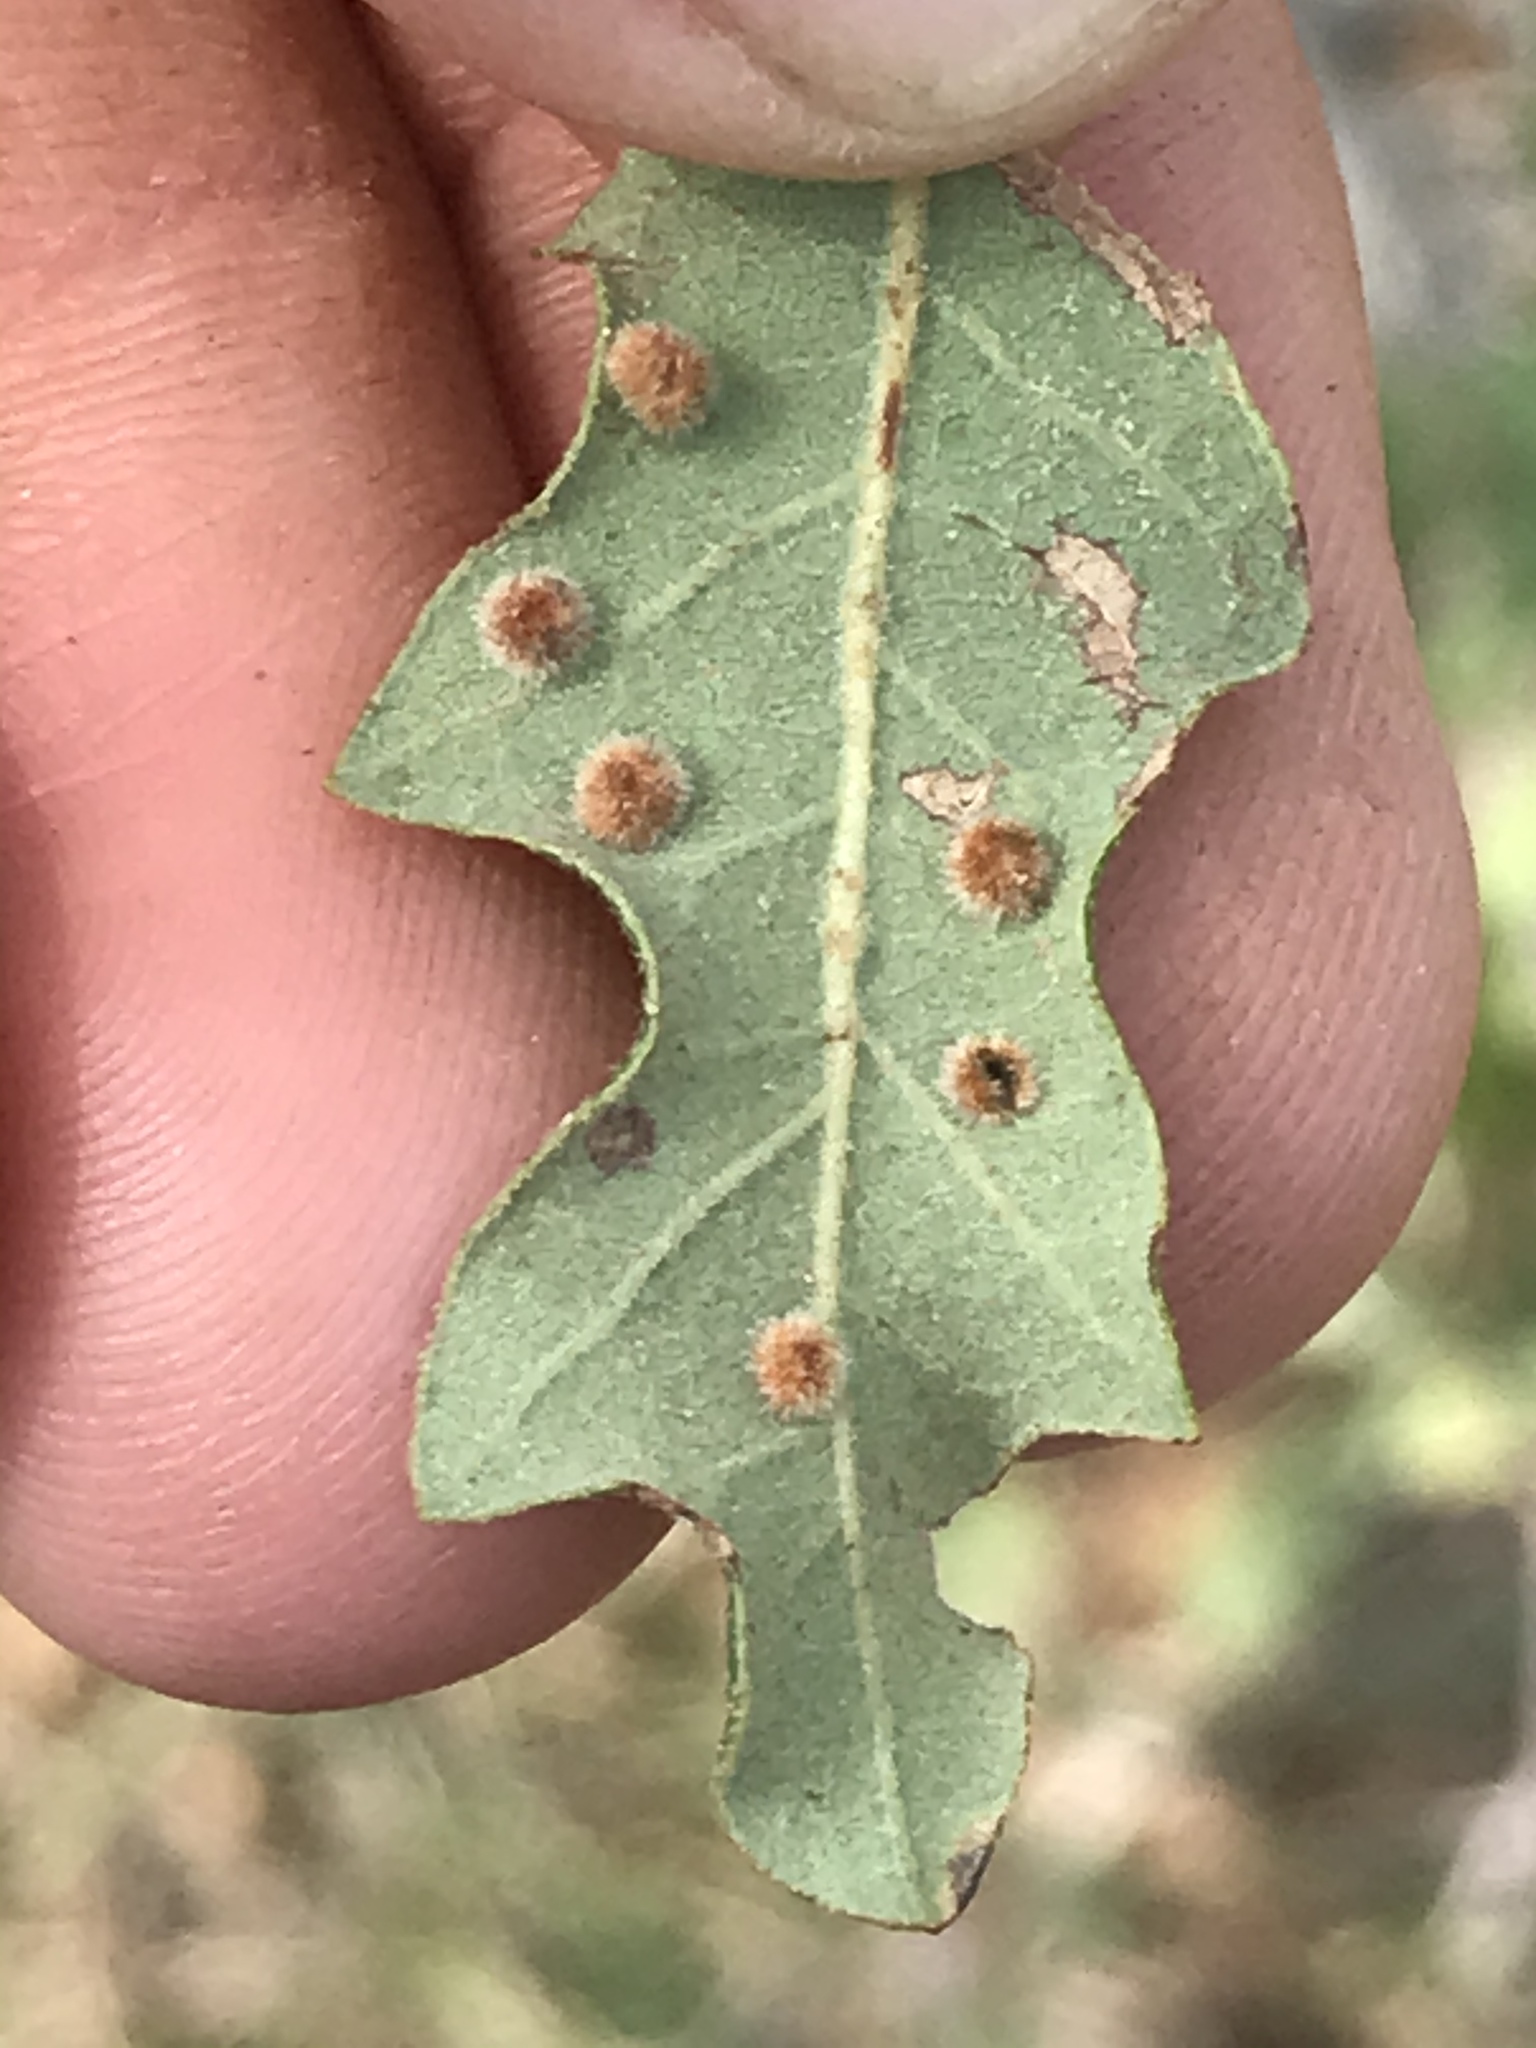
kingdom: Animalia
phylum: Arthropoda
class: Insecta
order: Hymenoptera
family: Cynipidae
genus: Neuroterus
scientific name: Neuroterus quercusverrucarum
